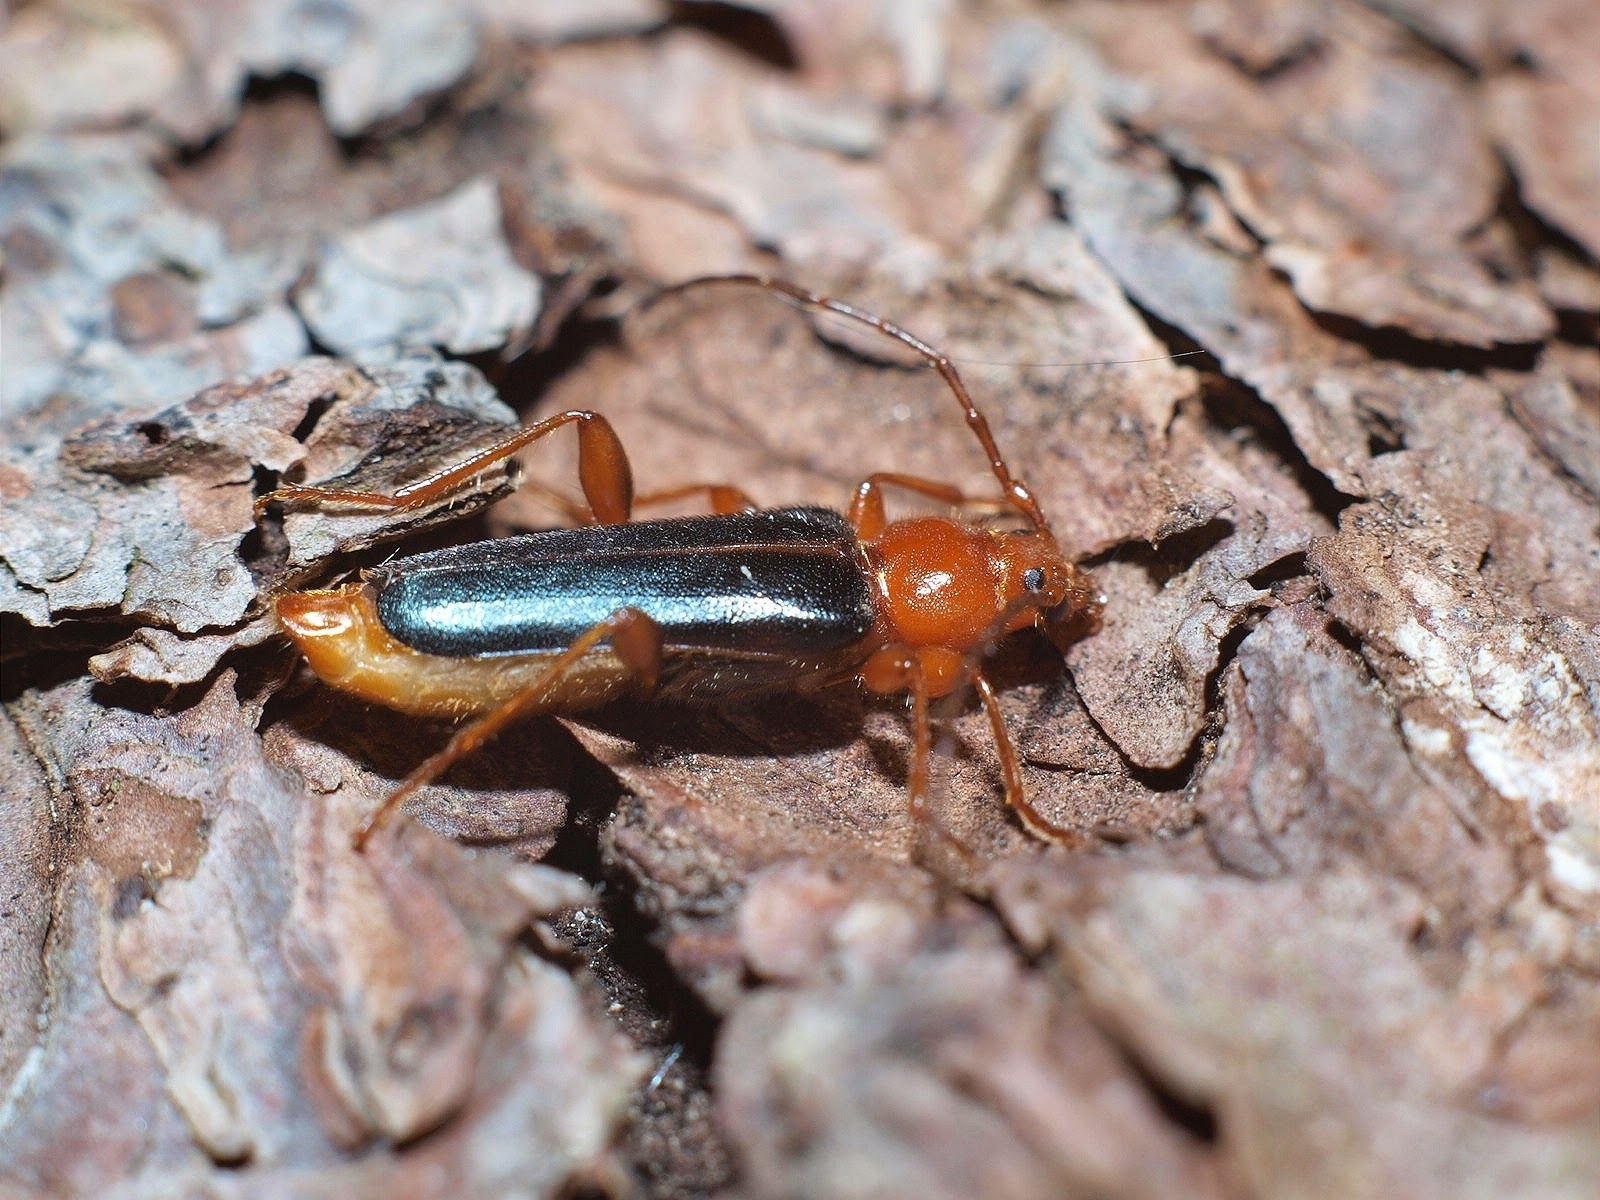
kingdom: Animalia
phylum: Arthropoda
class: Insecta
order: Coleoptera
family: Cerambycidae
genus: Phymatodes
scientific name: Phymatodes testaceus
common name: Long-horned beetle
